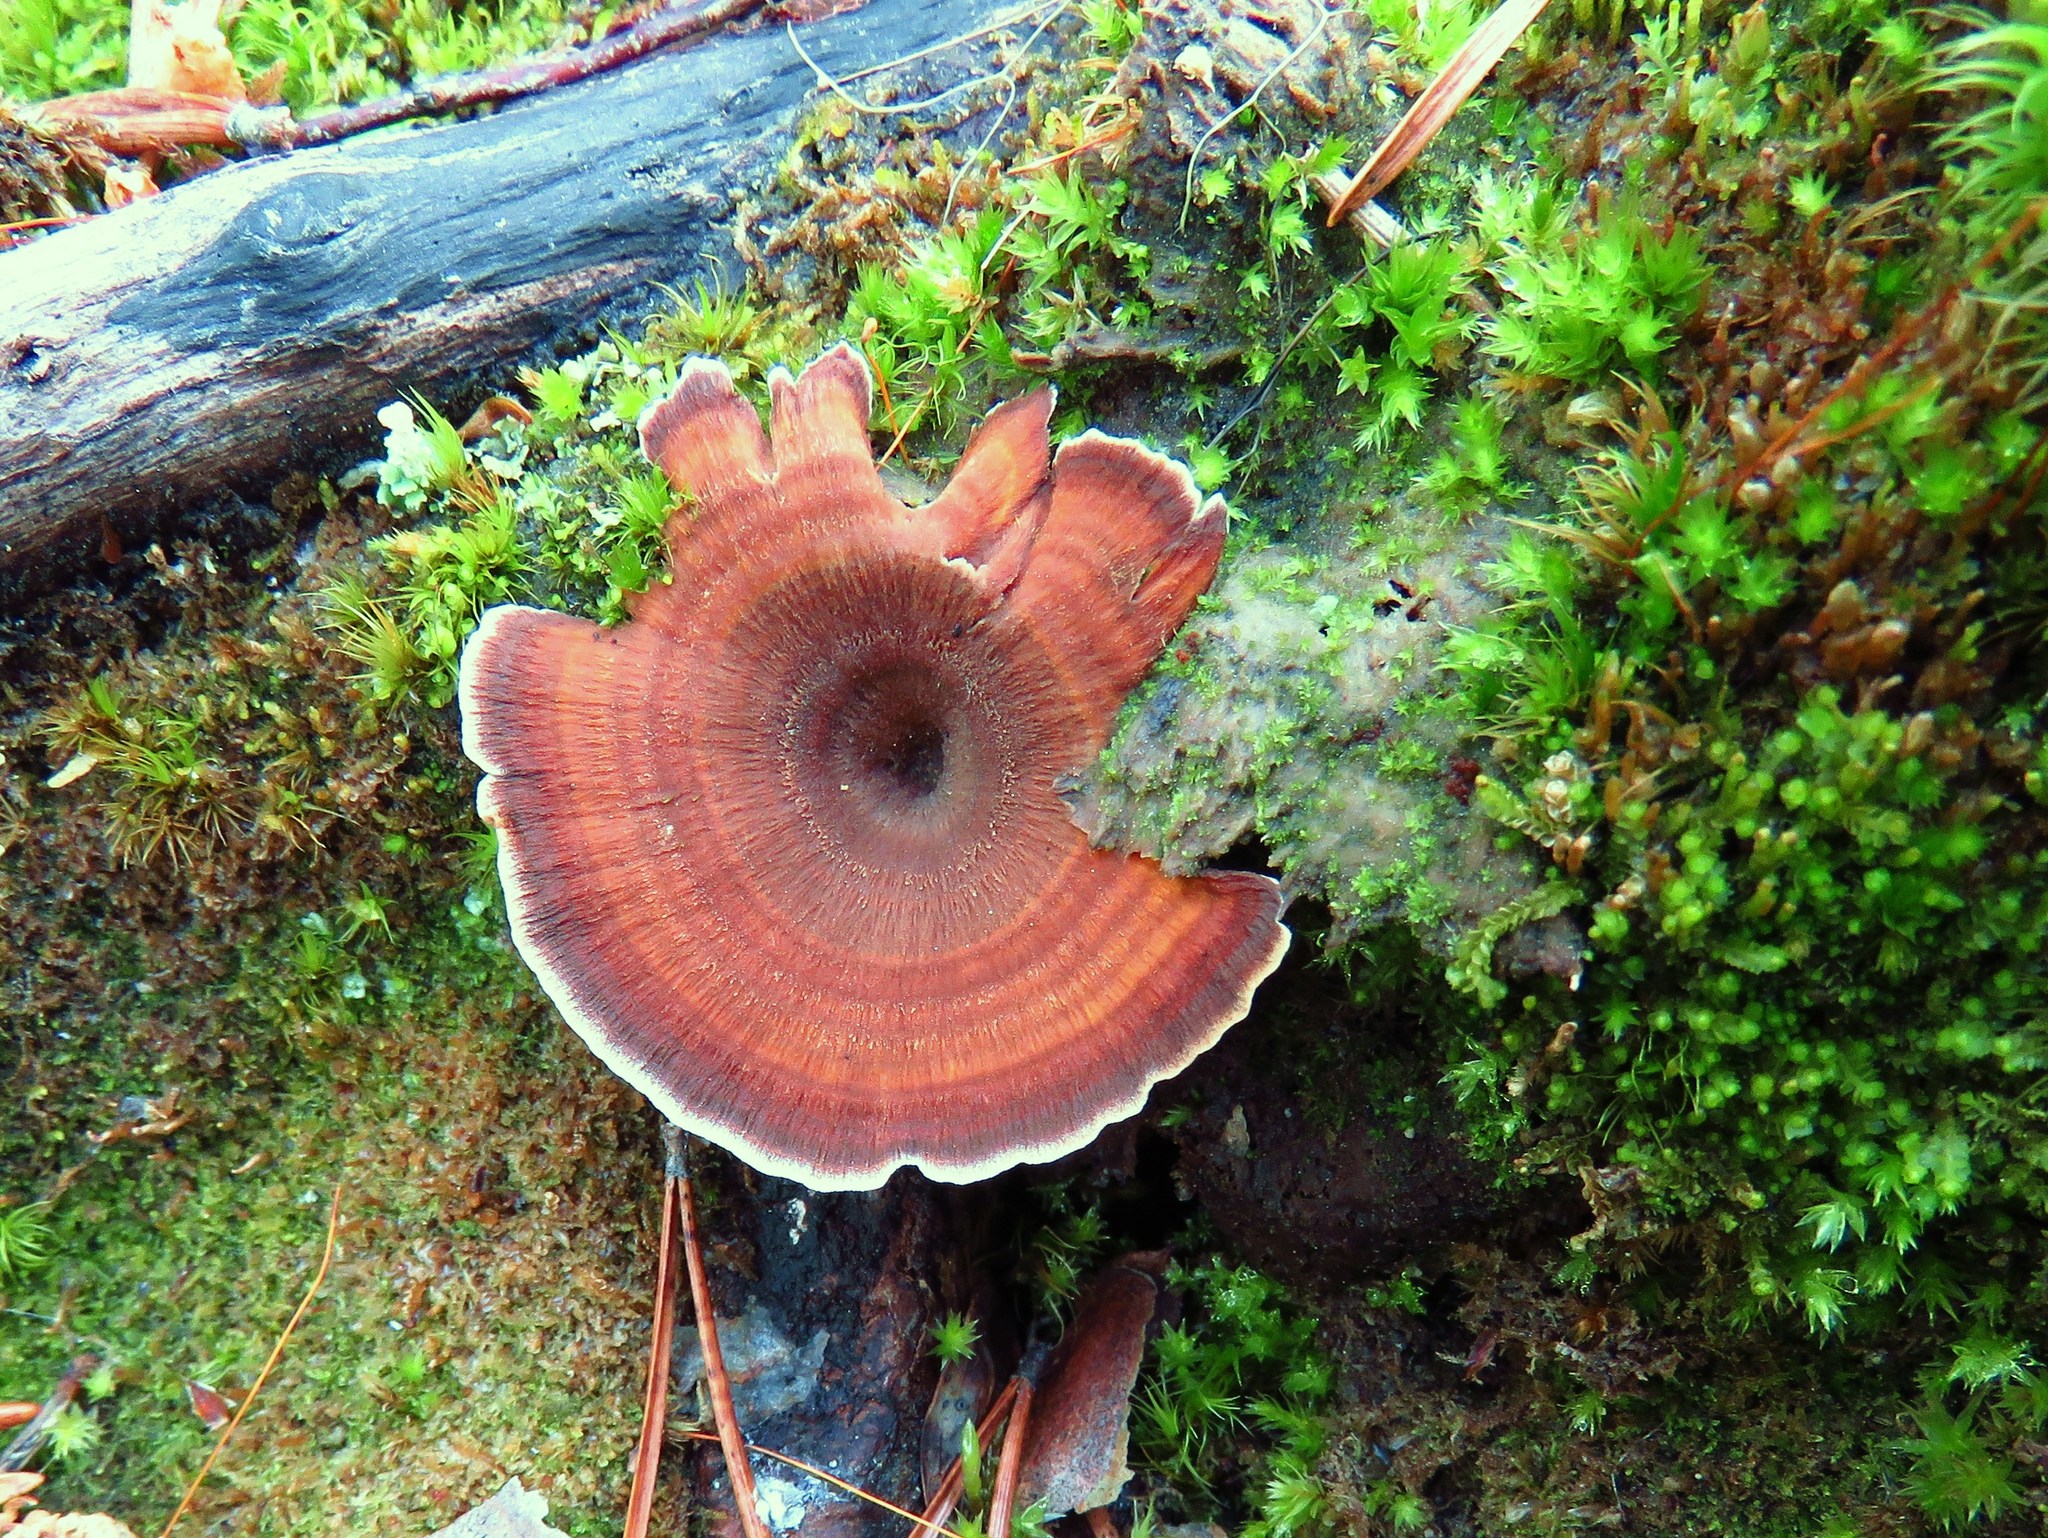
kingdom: Fungi
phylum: Basidiomycota
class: Agaricomycetes
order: Hymenochaetales
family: Hymenochaetaceae
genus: Coltricia
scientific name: Coltricia perennis
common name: Tiger's eye
